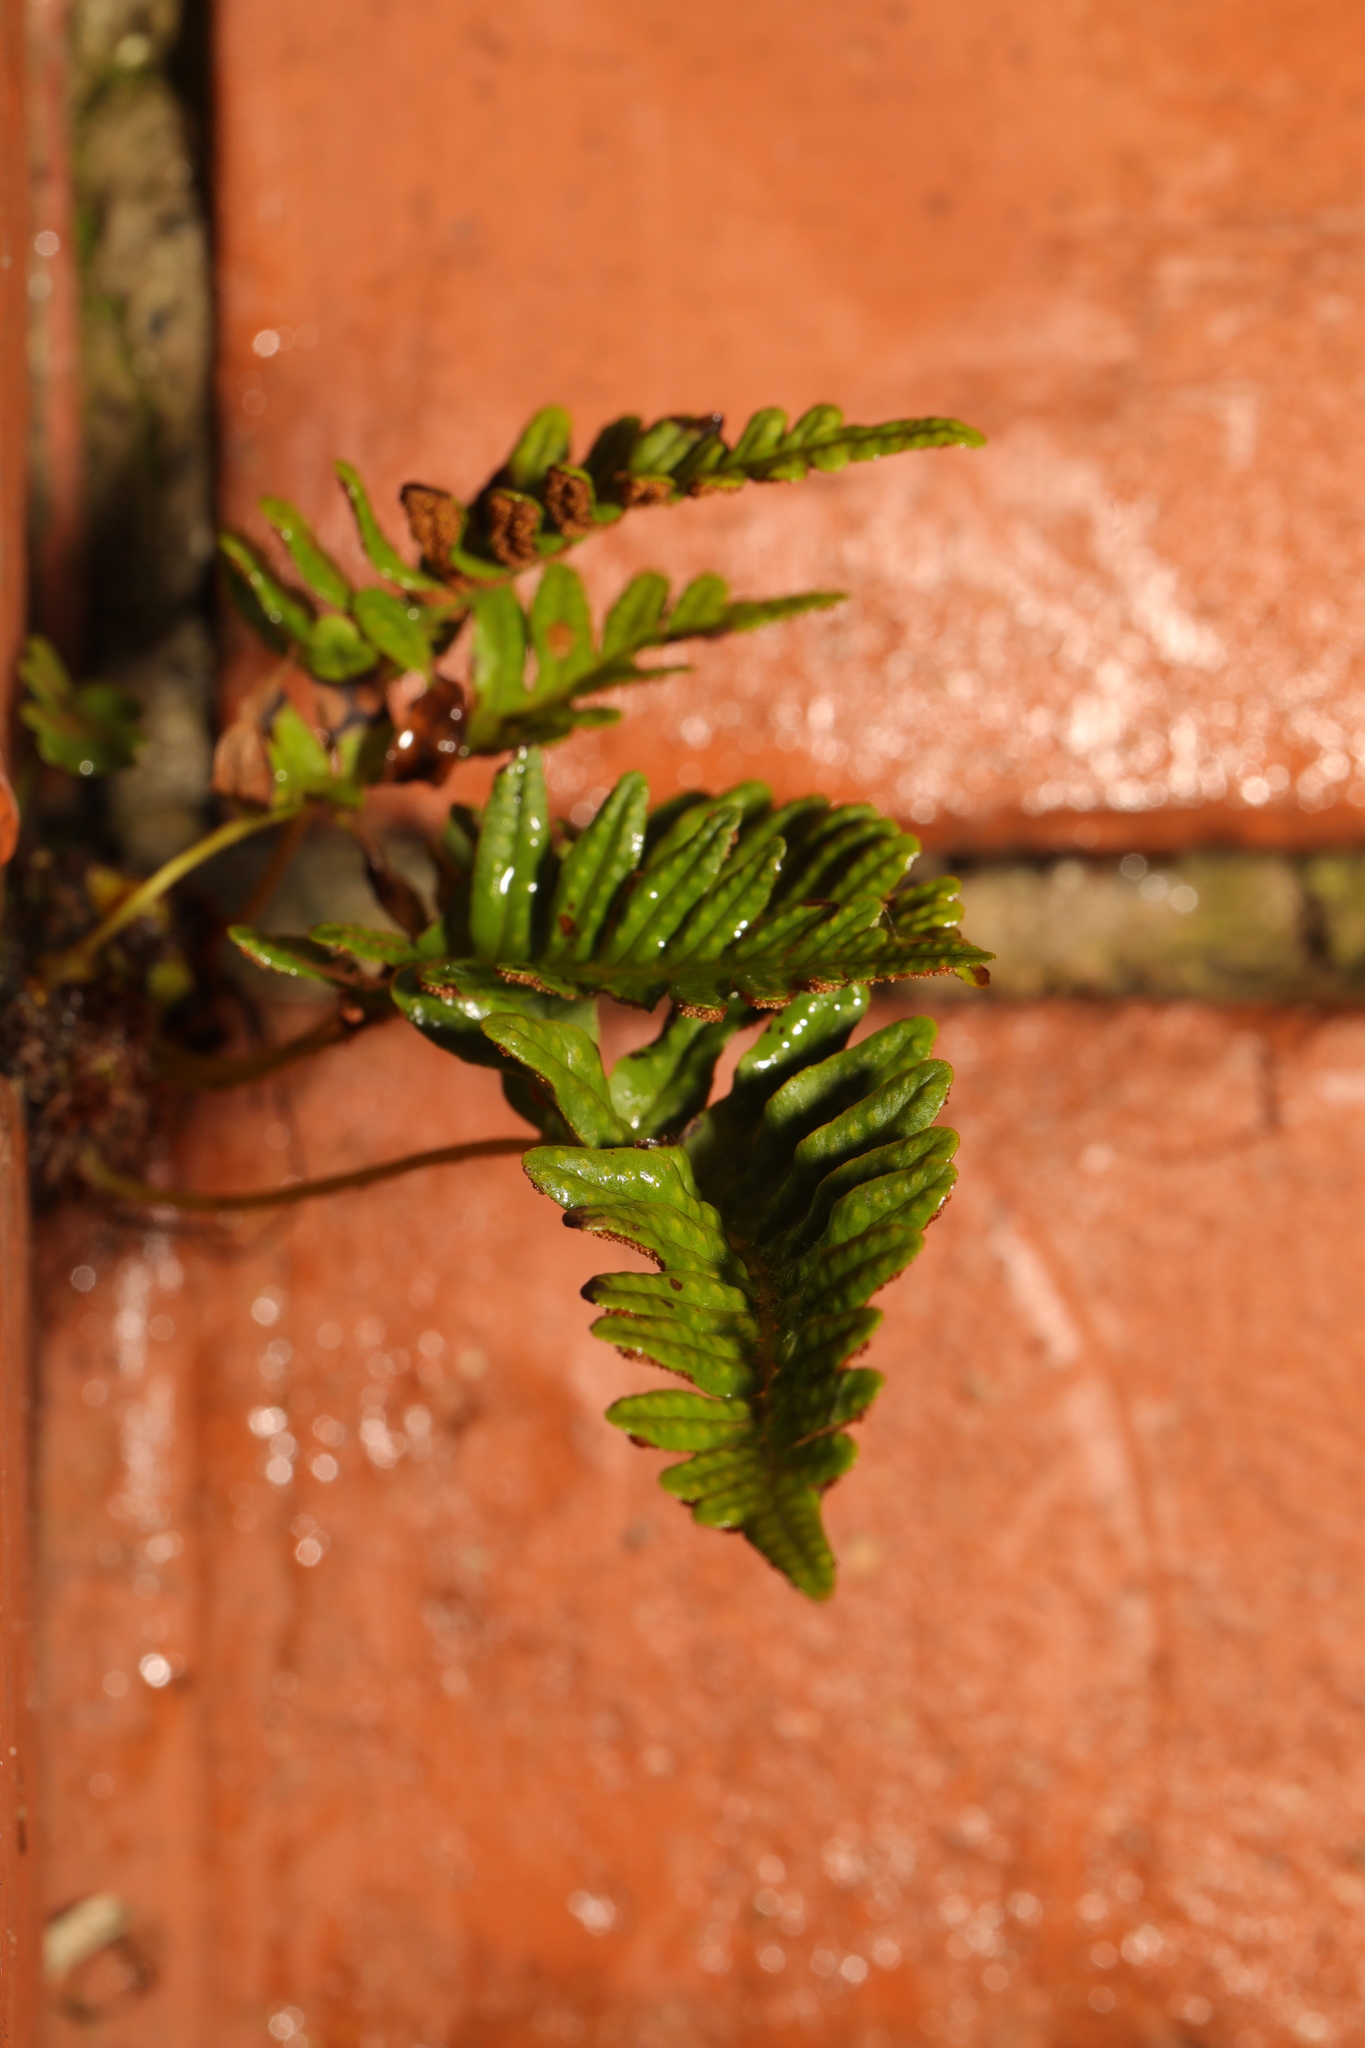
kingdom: Plantae
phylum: Tracheophyta
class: Polypodiopsida
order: Polypodiales
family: Polypodiaceae
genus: Polypodium
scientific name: Polypodium vulgare
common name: Common polypody
